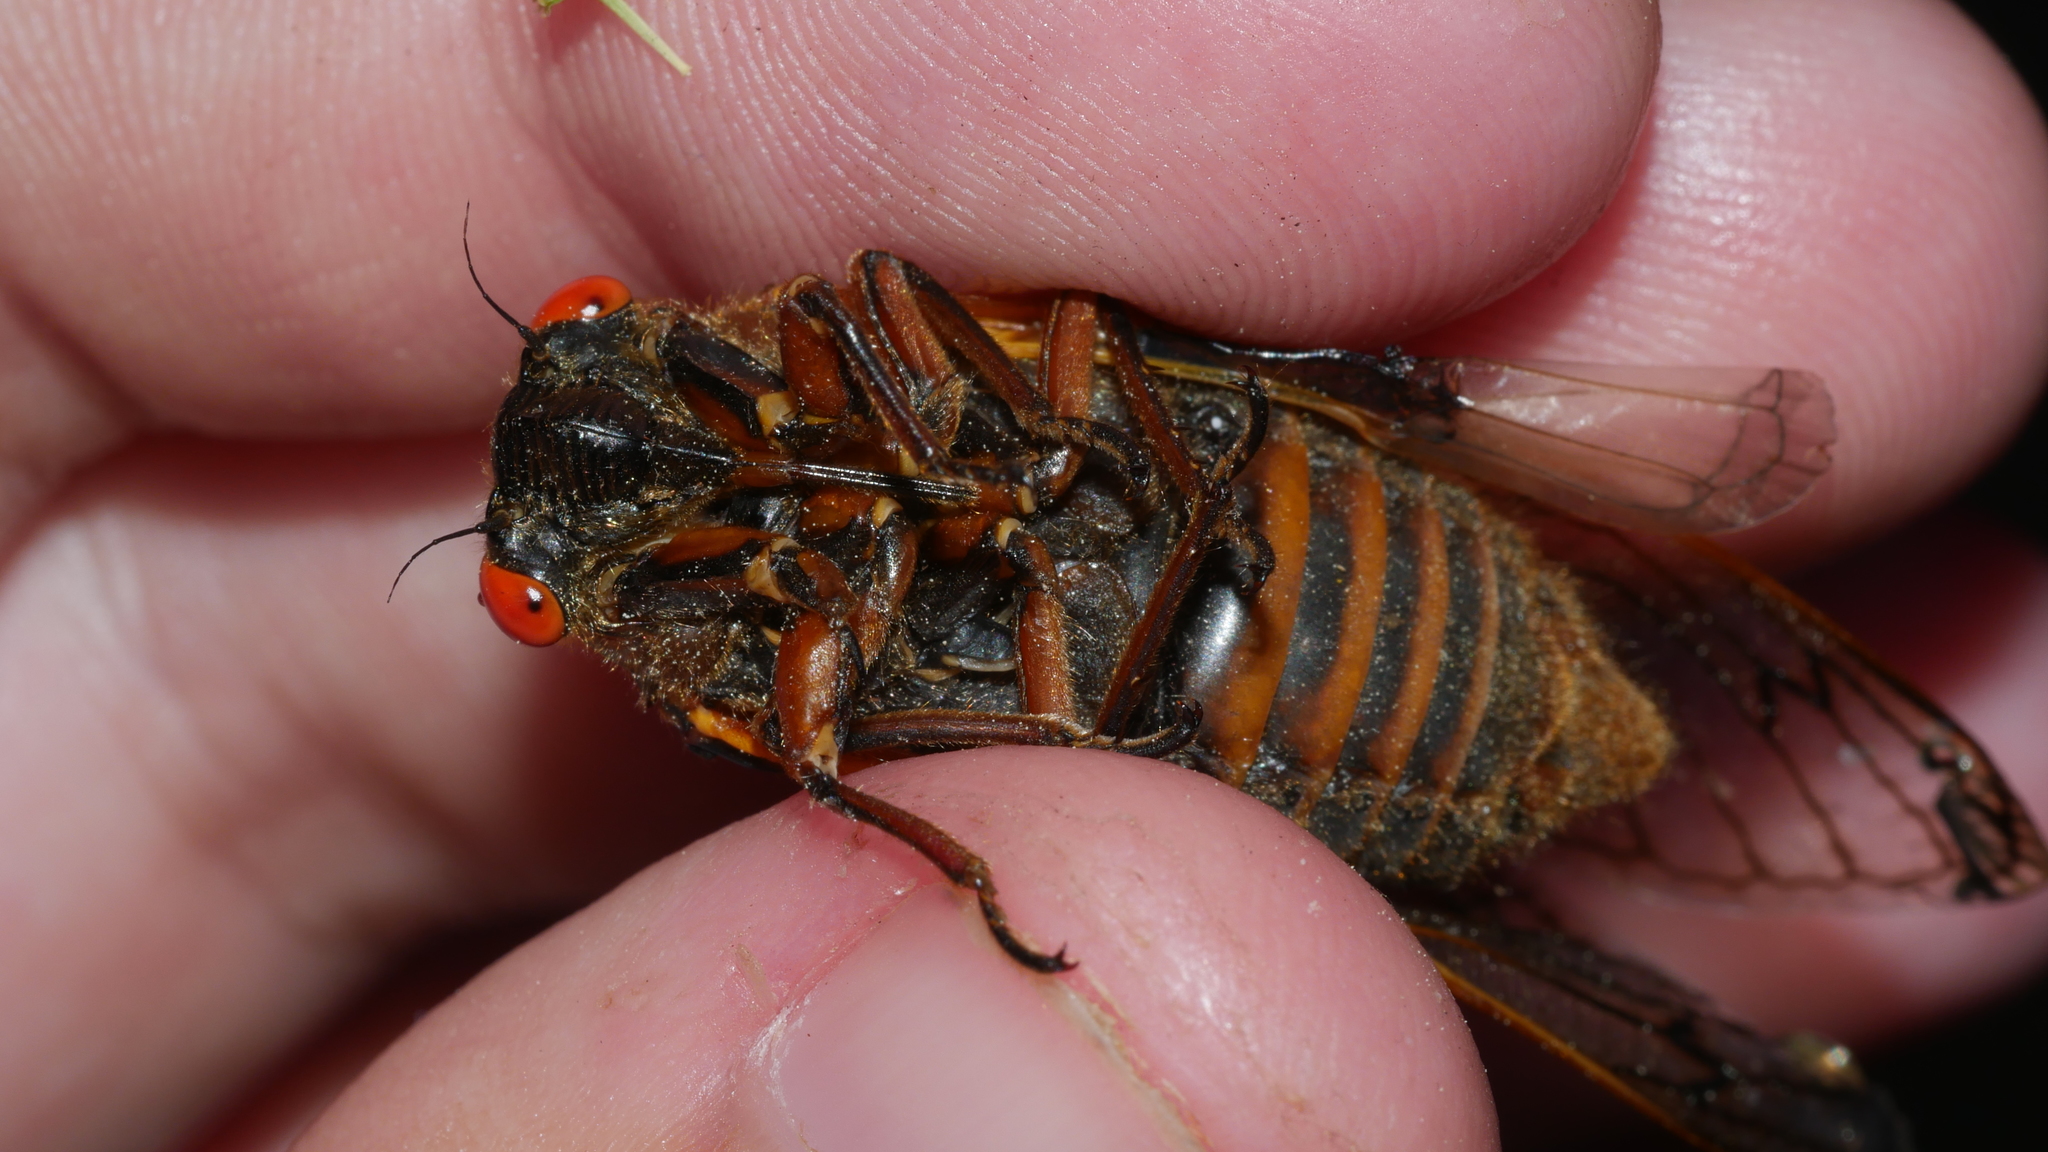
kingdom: Animalia
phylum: Arthropoda
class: Insecta
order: Hemiptera
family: Cicadidae
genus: Magicicada
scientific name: Magicicada septendecim
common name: Periodical cicada
